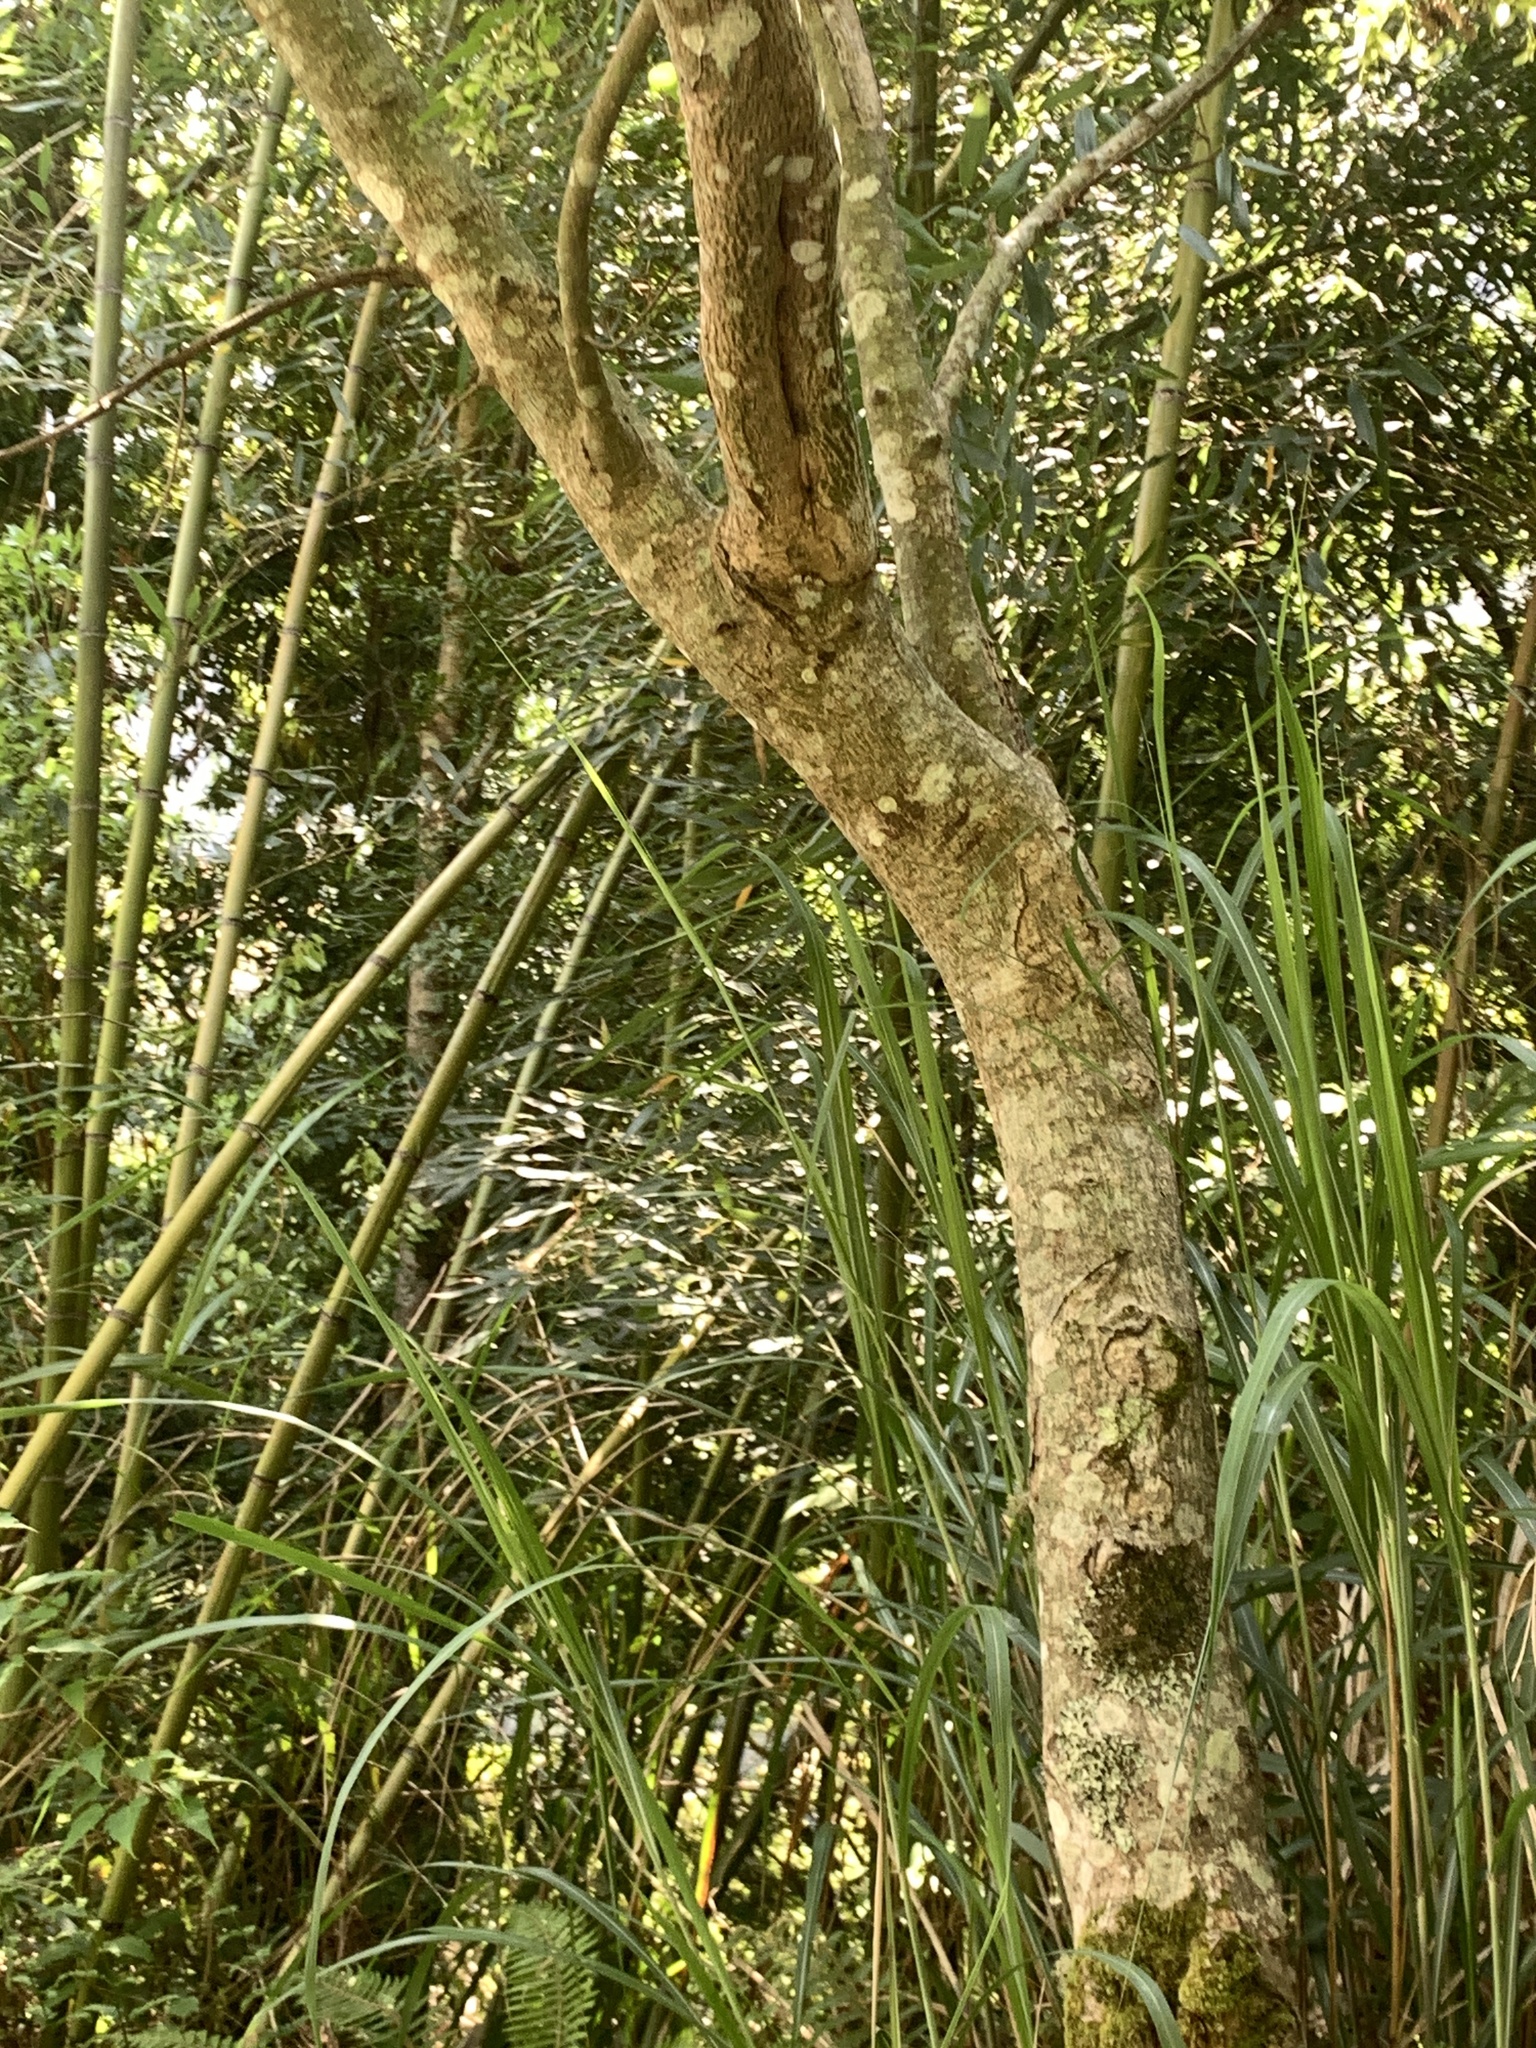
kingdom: Plantae
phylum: Tracheophyta
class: Magnoliopsida
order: Sapindales
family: Sapindaceae
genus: Acer
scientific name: Acer caudatifolium
